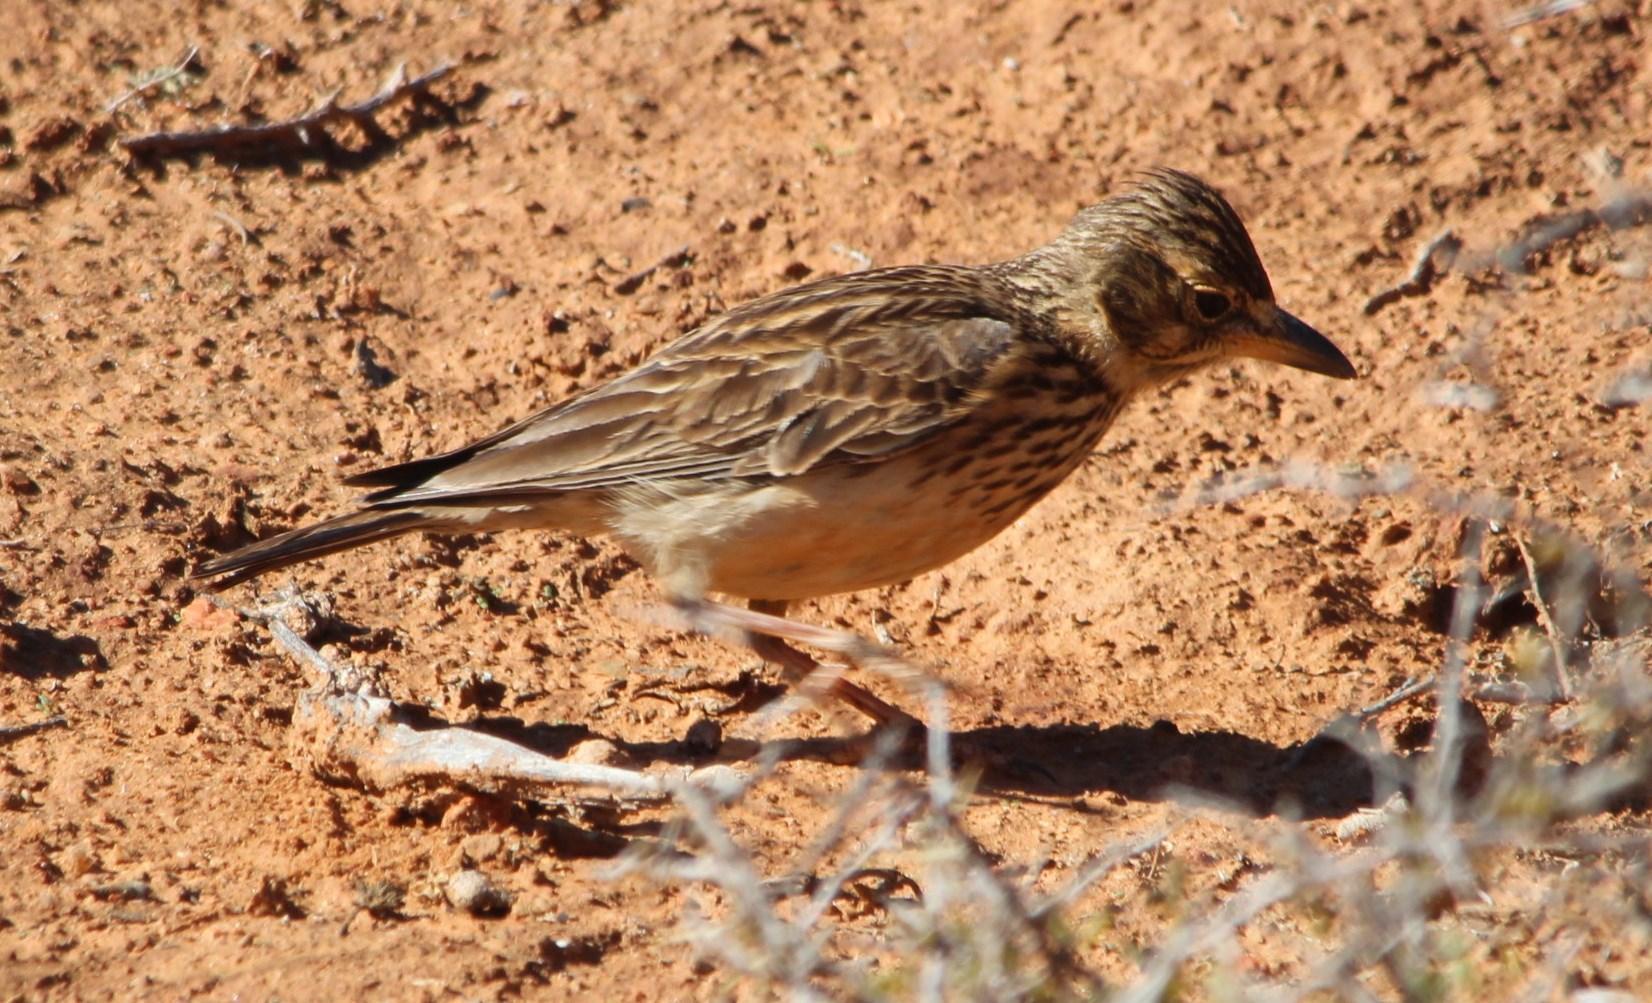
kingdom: Animalia
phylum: Chordata
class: Aves
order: Passeriformes
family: Alaudidae
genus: Galerida
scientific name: Galerida magnirostris
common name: Large-billed lark
